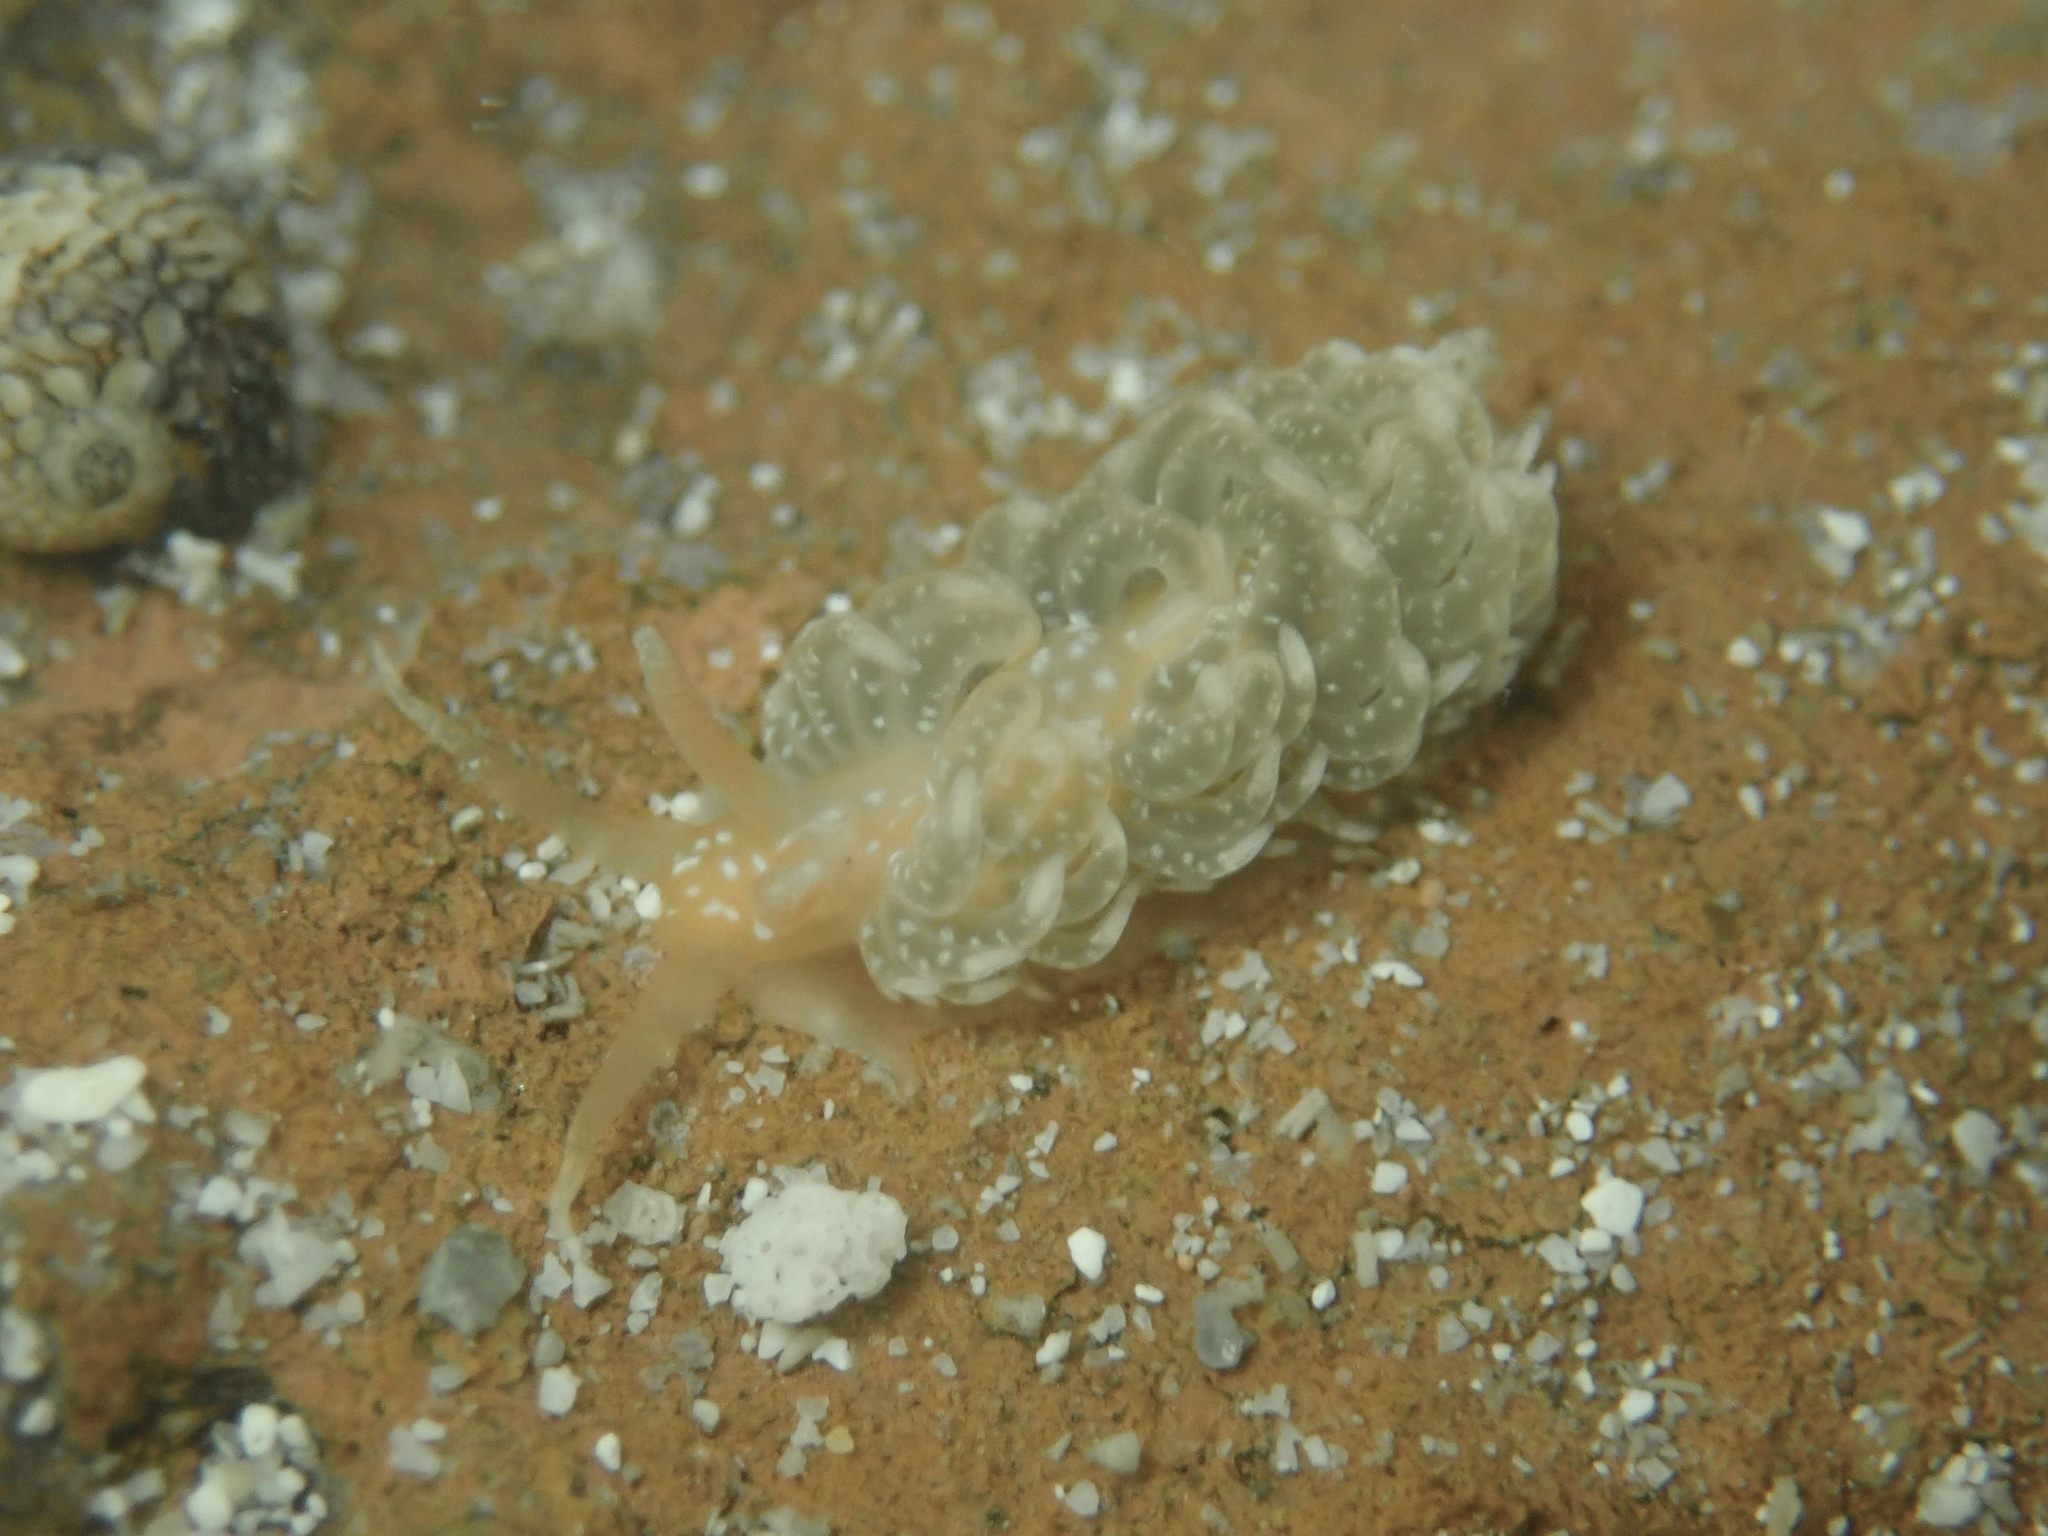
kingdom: Animalia
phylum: Mollusca
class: Gastropoda
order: Nudibranchia
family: Aeolidiidae
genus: Spurilla
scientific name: Spurilla braziliana
